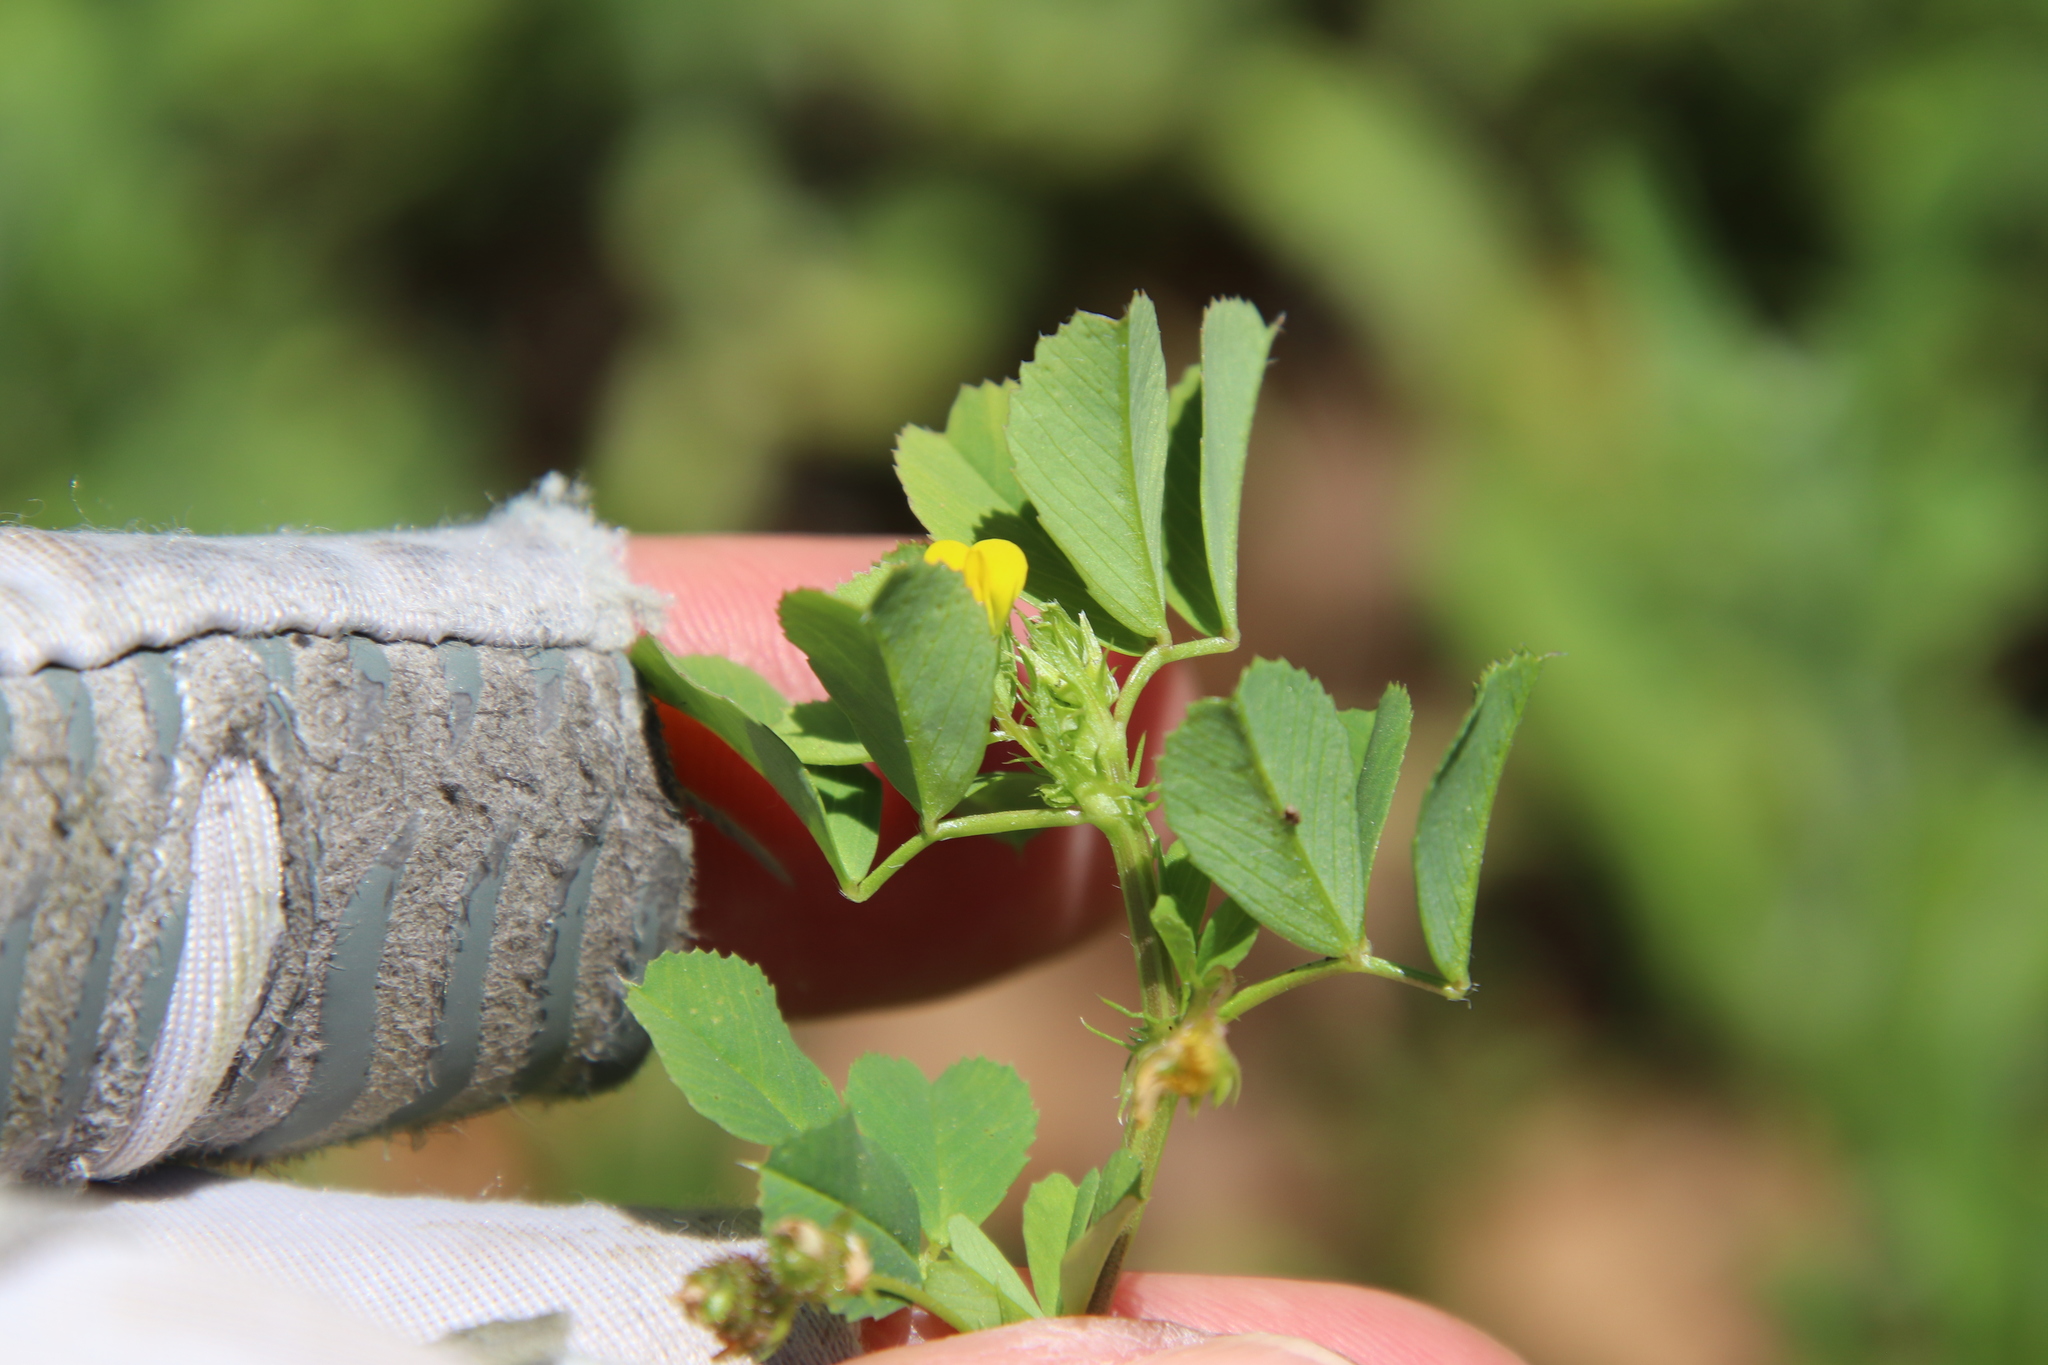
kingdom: Plantae
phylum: Tracheophyta
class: Magnoliopsida
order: Fabales
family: Fabaceae
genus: Medicago
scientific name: Medicago polymorpha
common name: Burclover
